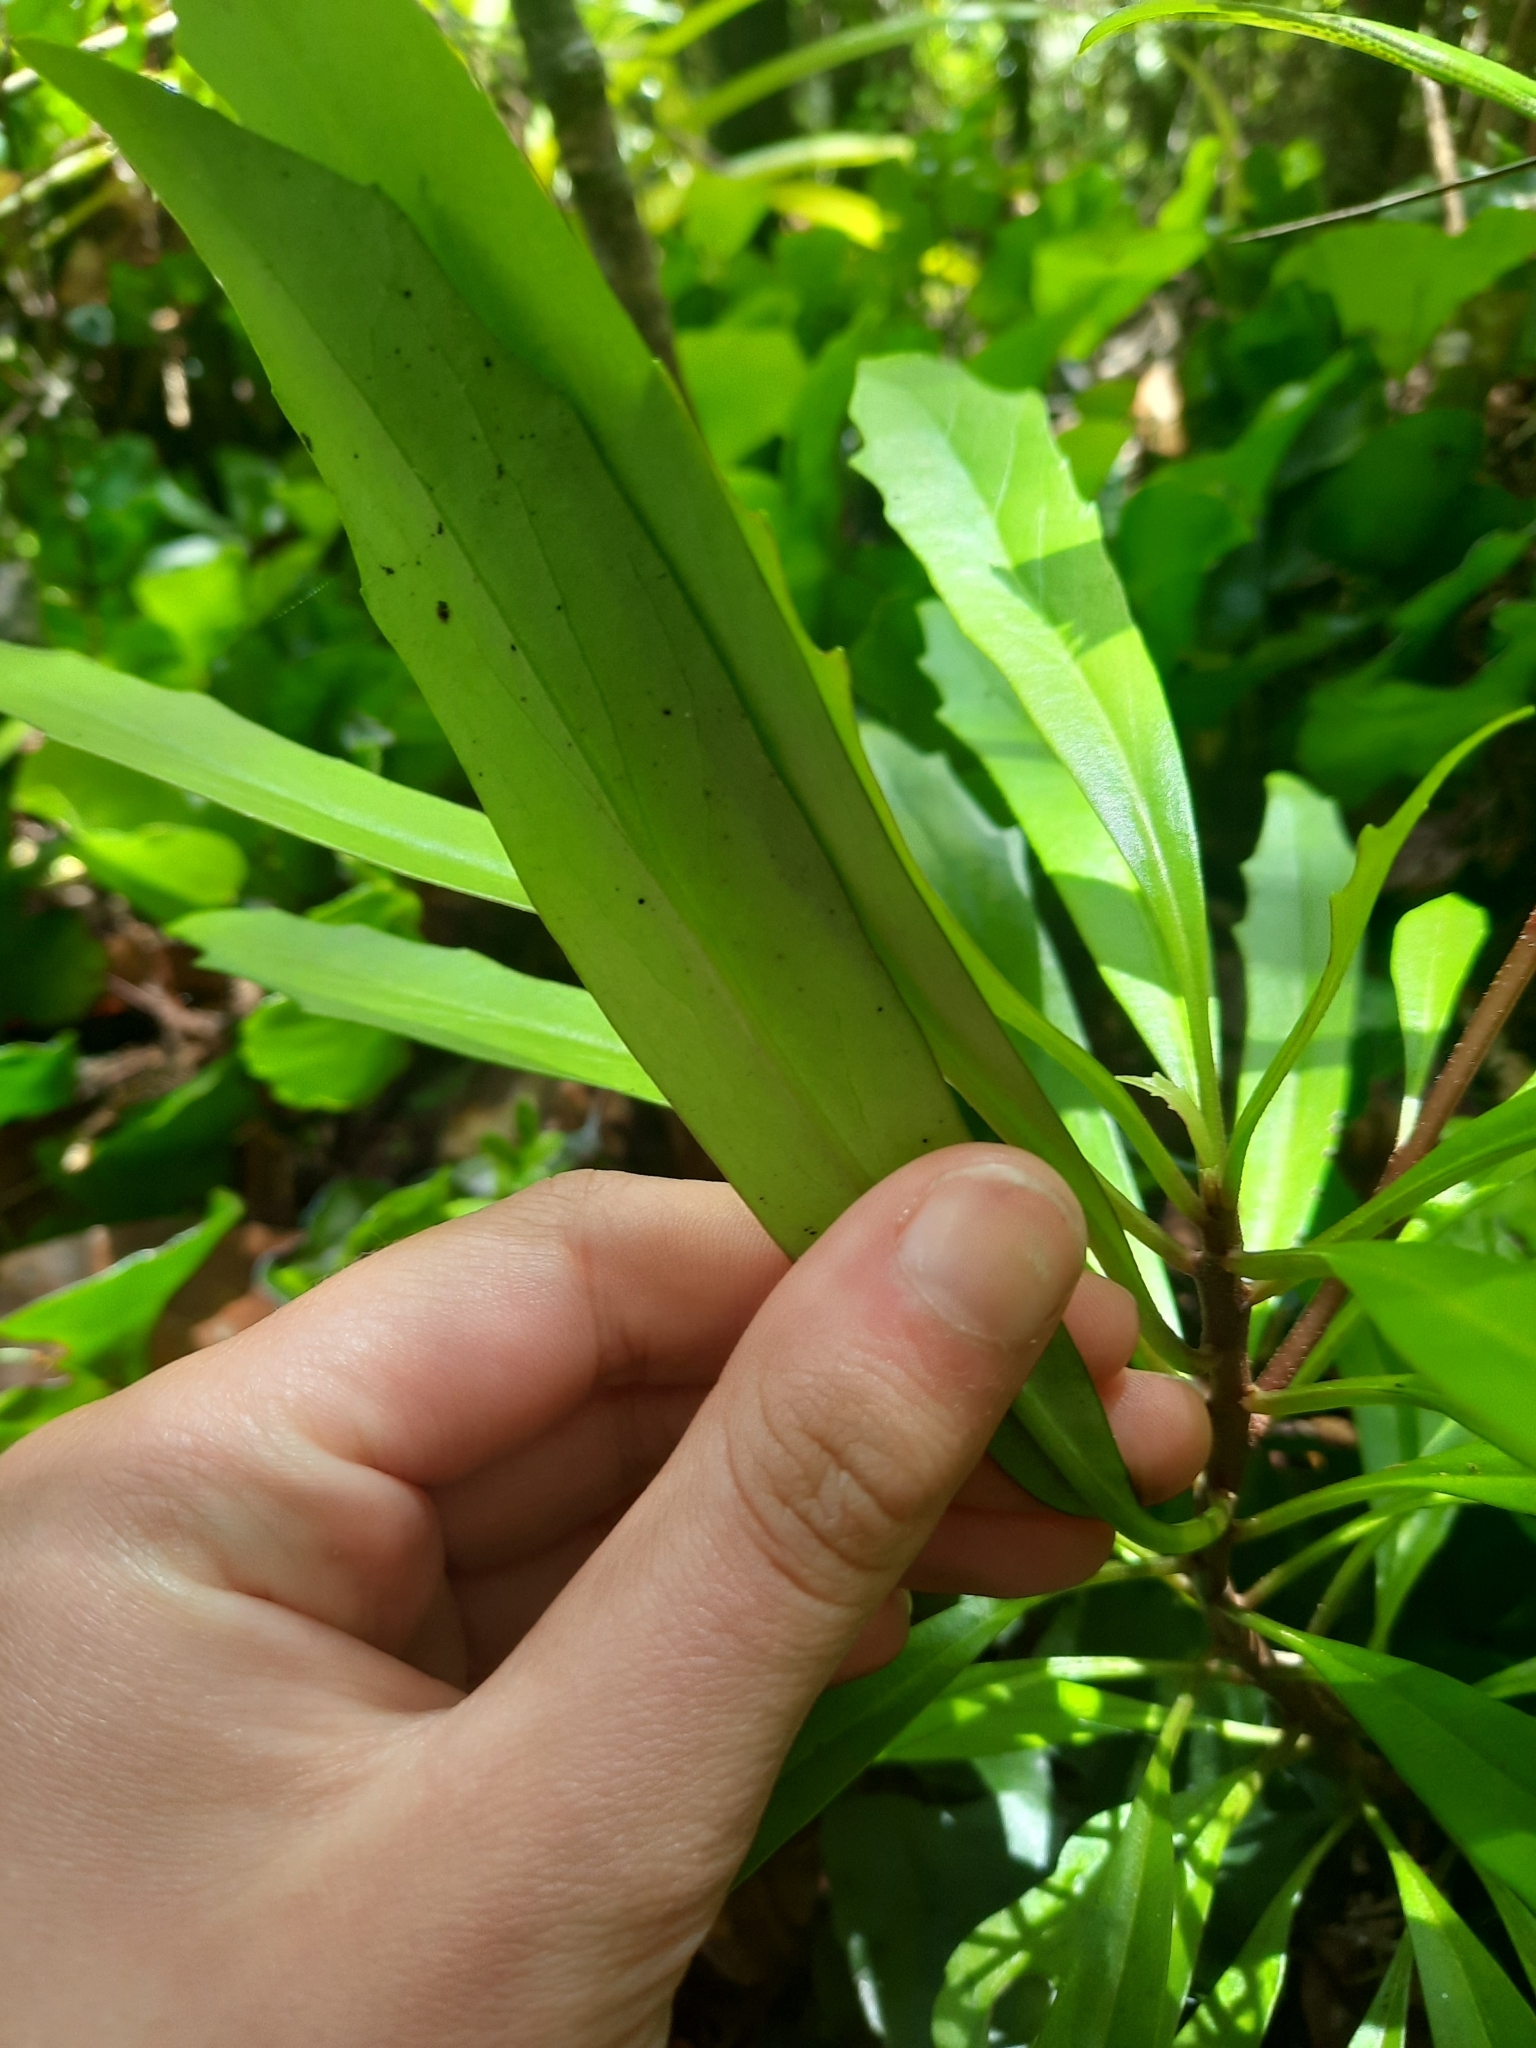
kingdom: Plantae
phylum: Tracheophyta
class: Magnoliopsida
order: Asterales
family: Asteraceae
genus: Brachyglottis
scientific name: Brachyglottis kirkii
